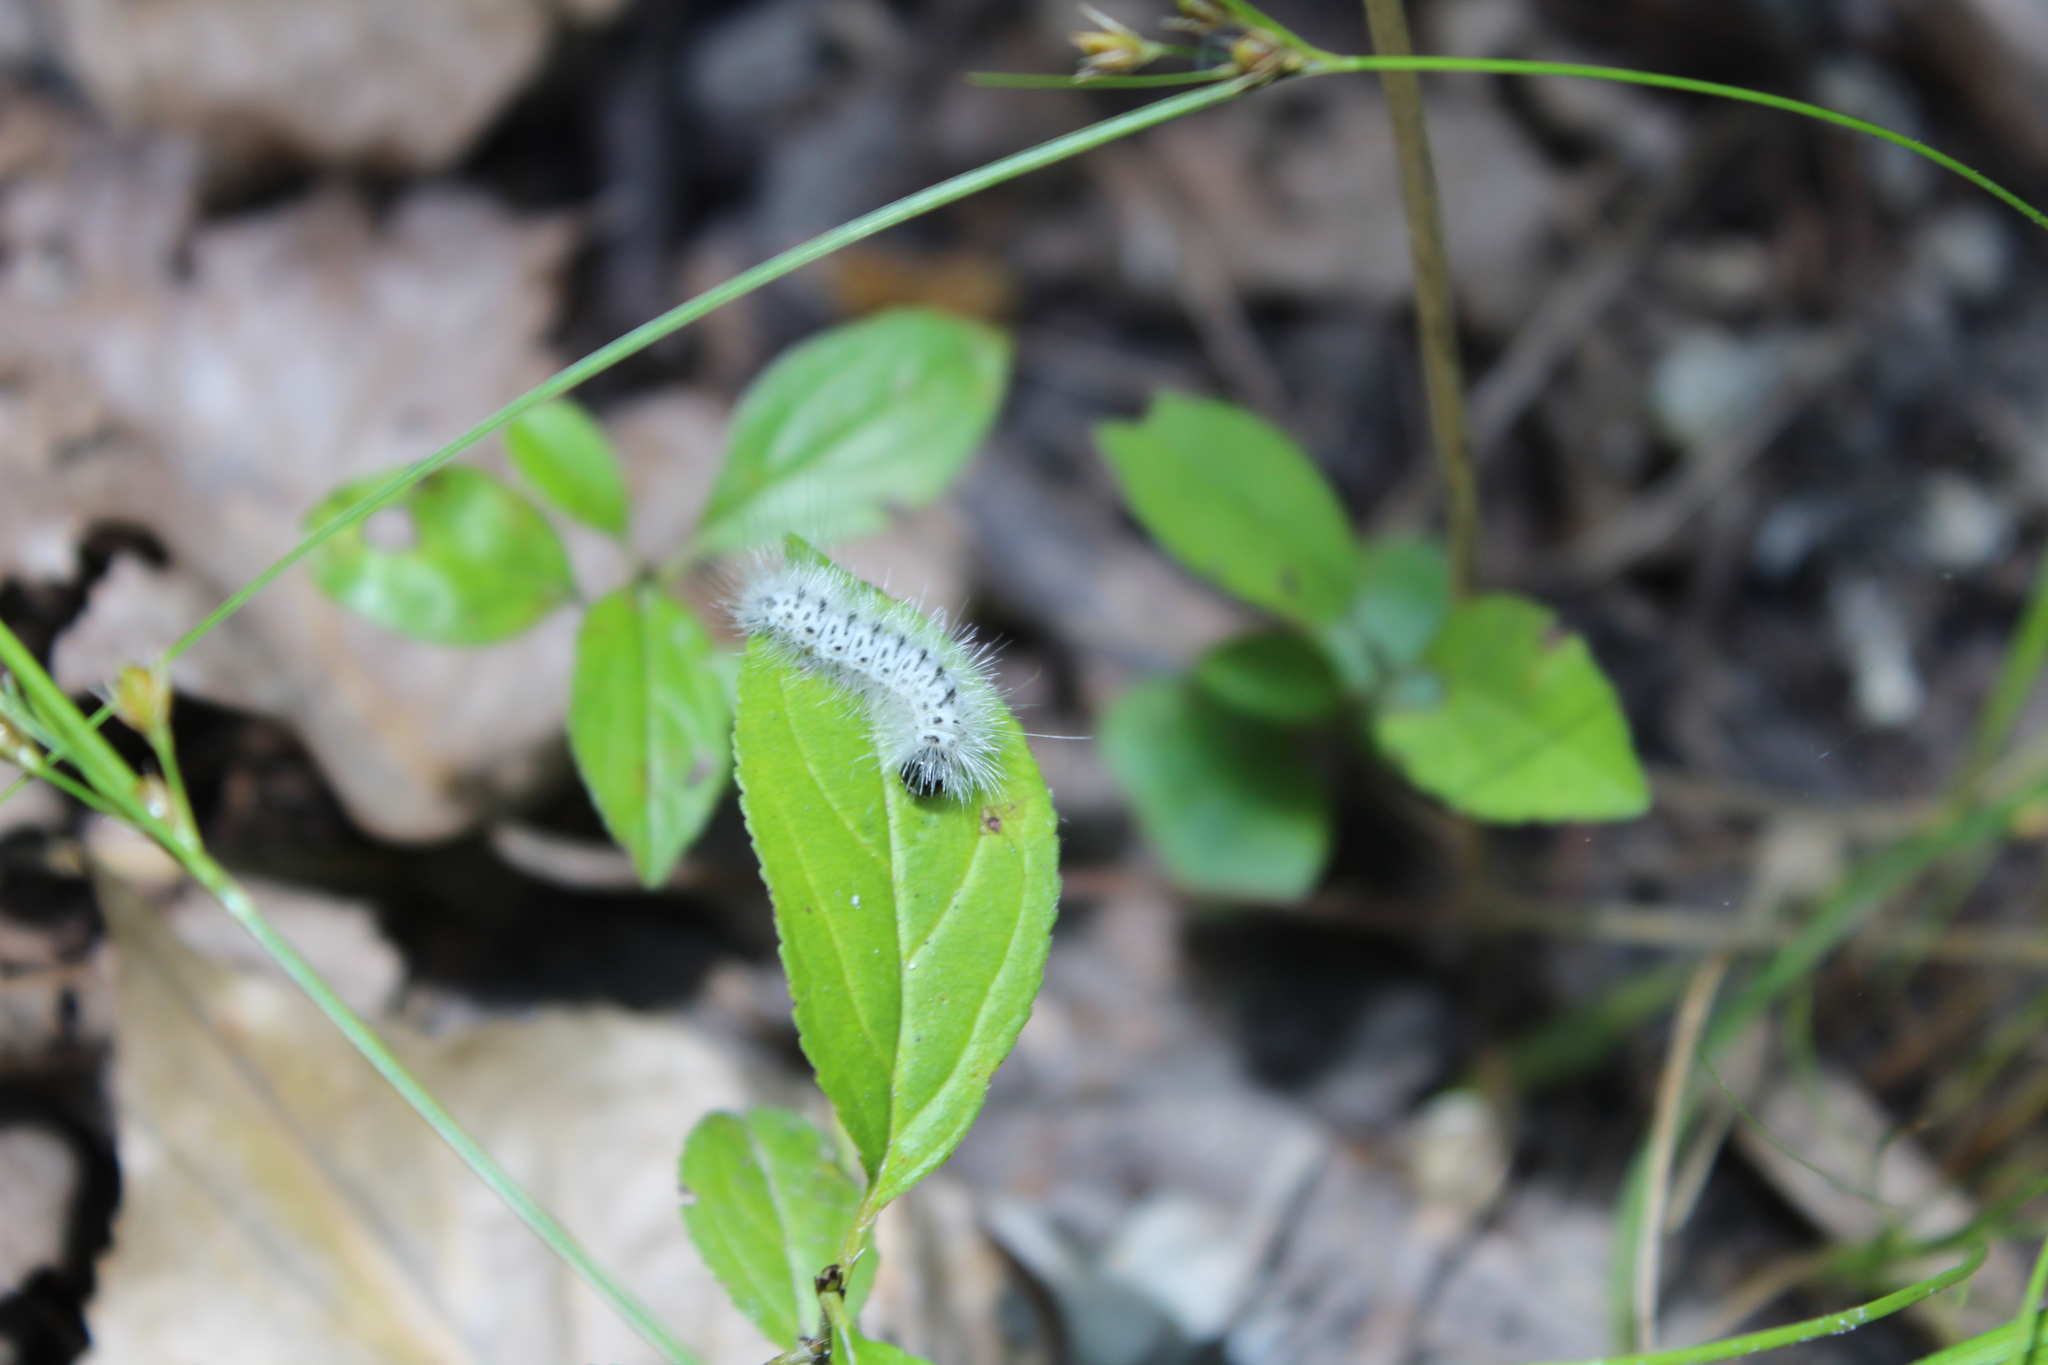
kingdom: Animalia
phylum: Arthropoda
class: Insecta
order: Lepidoptera
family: Erebidae
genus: Lophocampa
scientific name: Lophocampa caryae
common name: Hickory tussock moth
